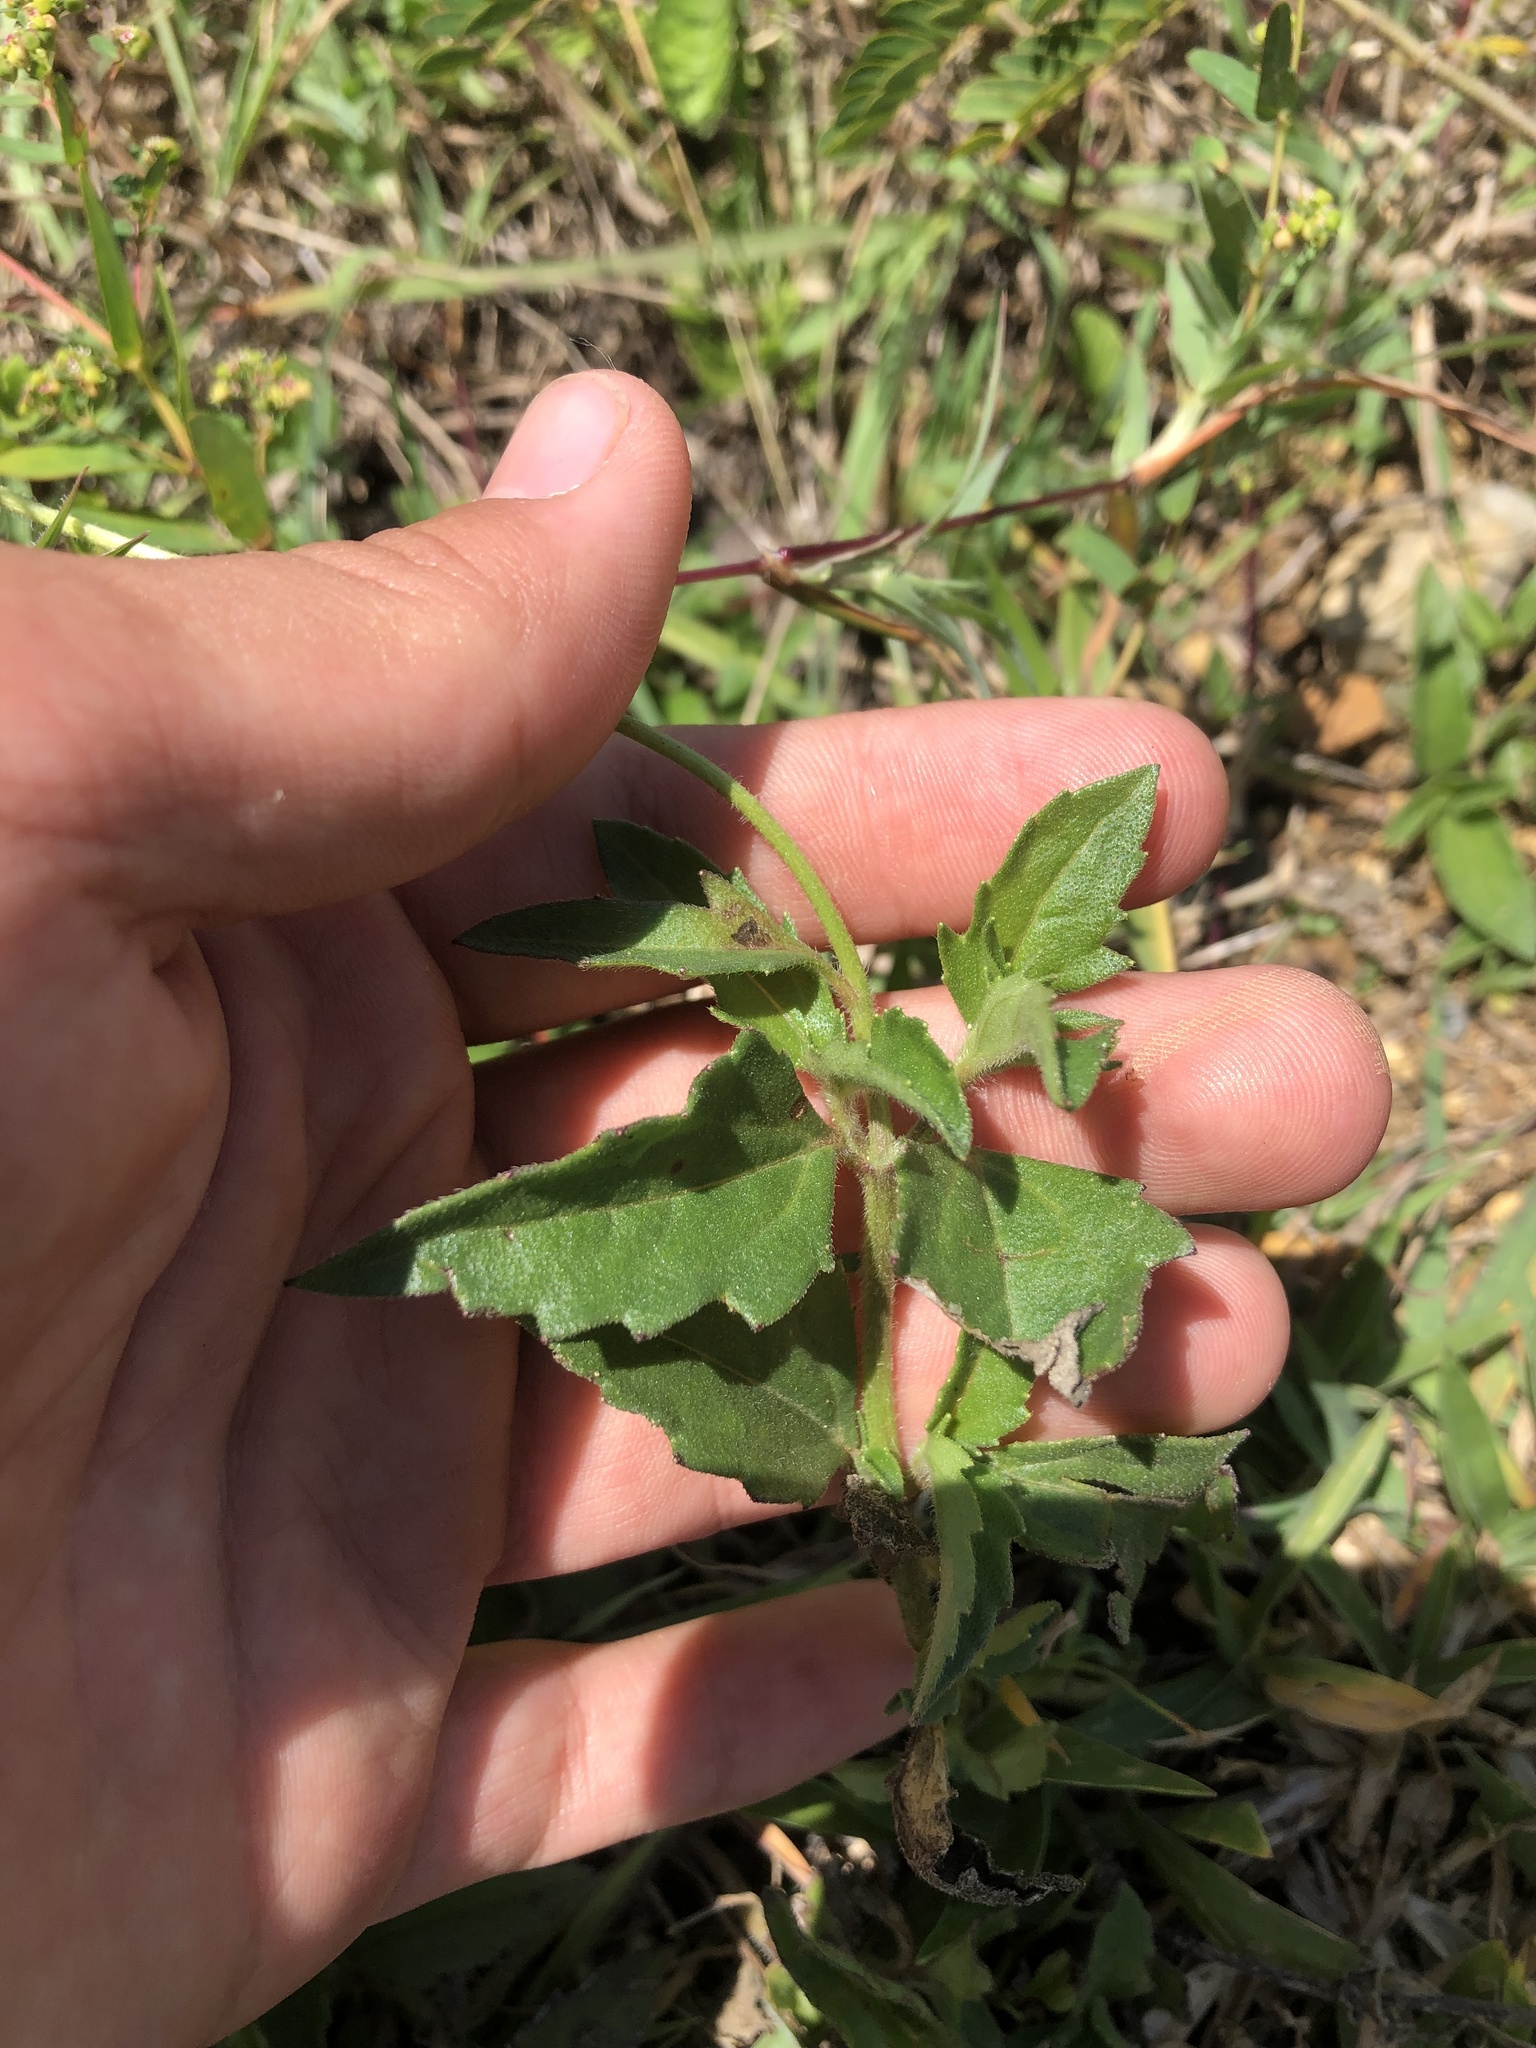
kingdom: Plantae
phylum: Tracheophyta
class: Magnoliopsida
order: Asterales
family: Asteraceae
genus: Tridax
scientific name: Tridax procumbens
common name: Coatbuttons
